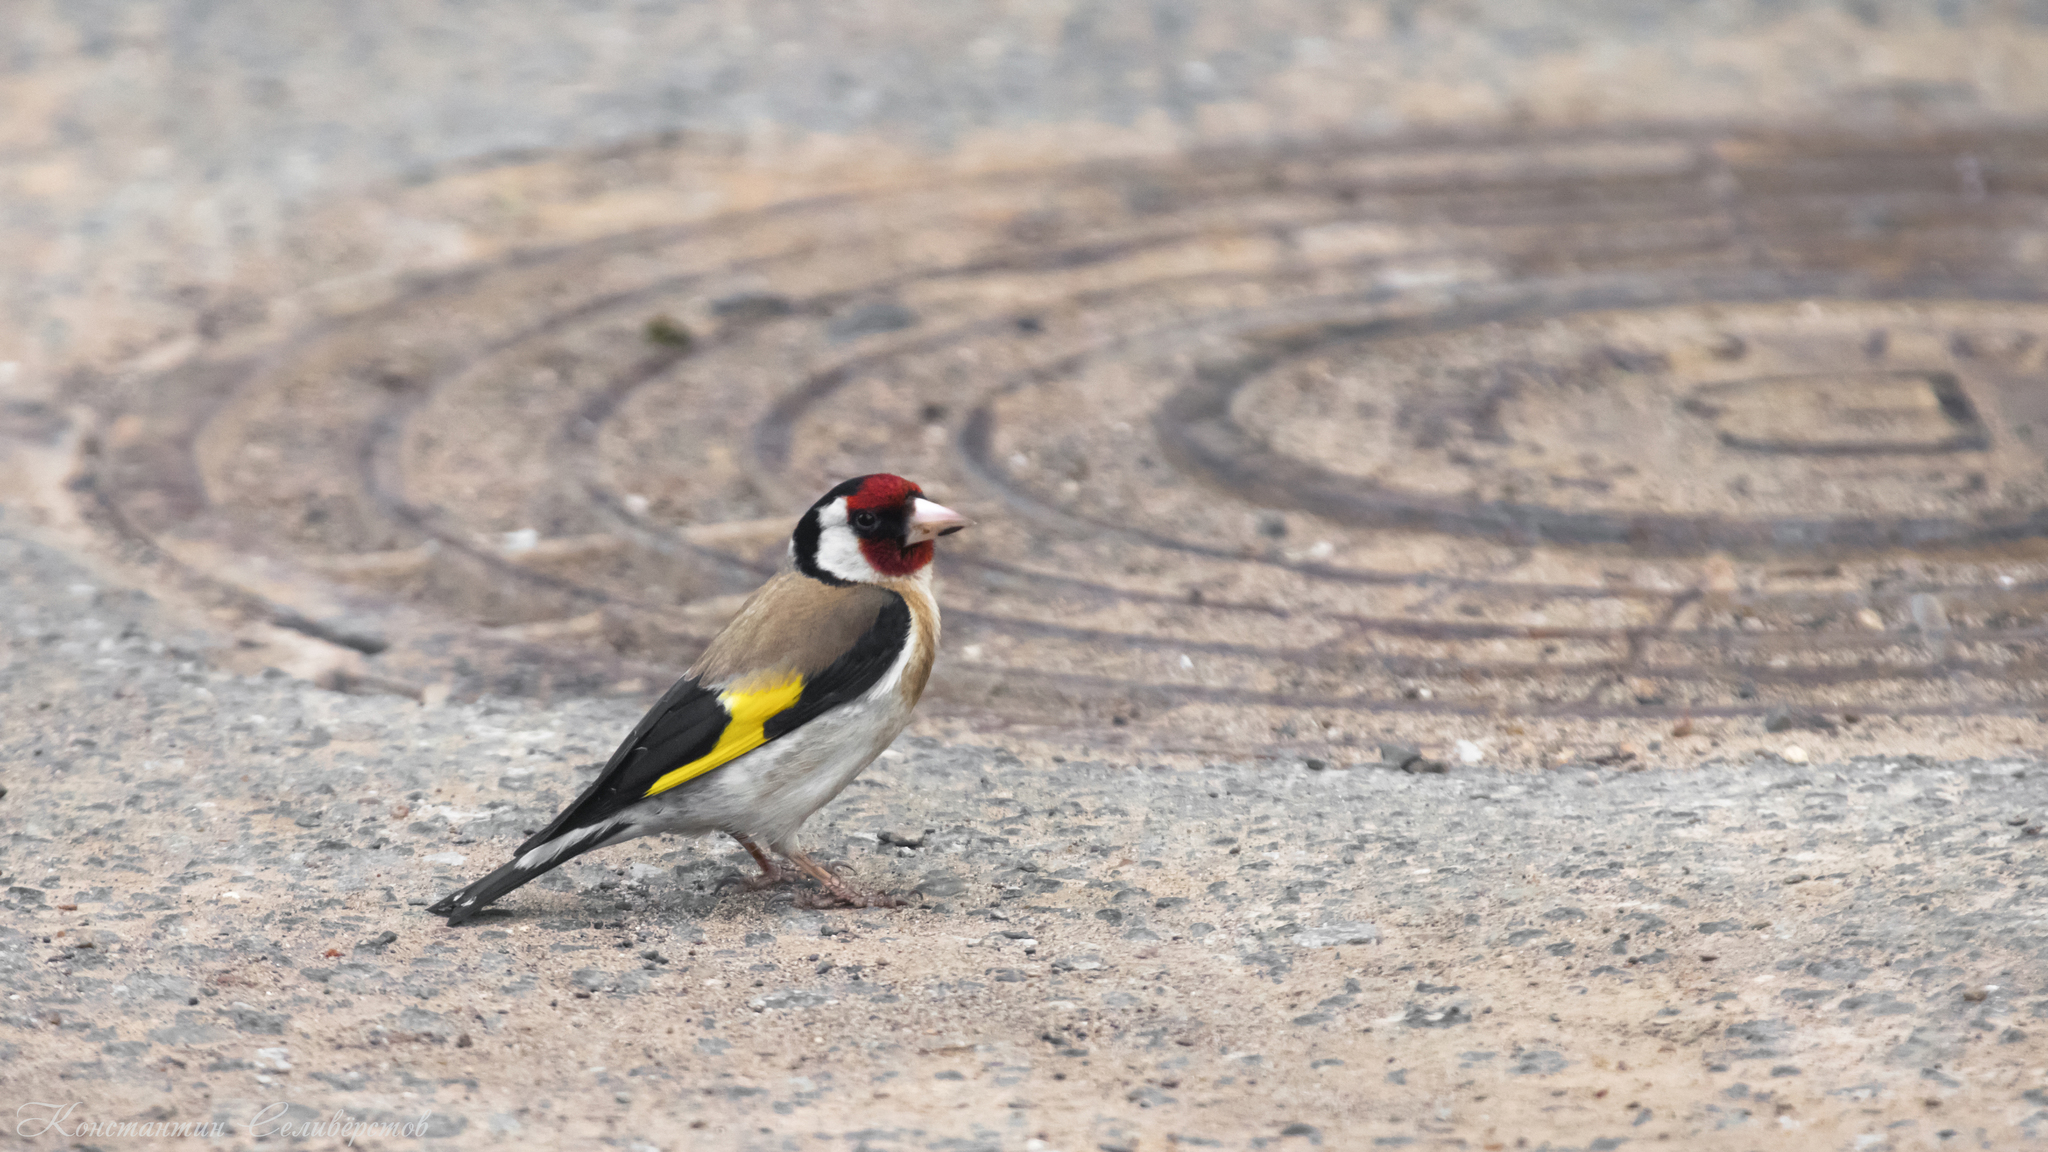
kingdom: Animalia
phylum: Chordata
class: Aves
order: Passeriformes
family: Fringillidae
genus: Carduelis
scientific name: Carduelis carduelis
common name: European goldfinch
